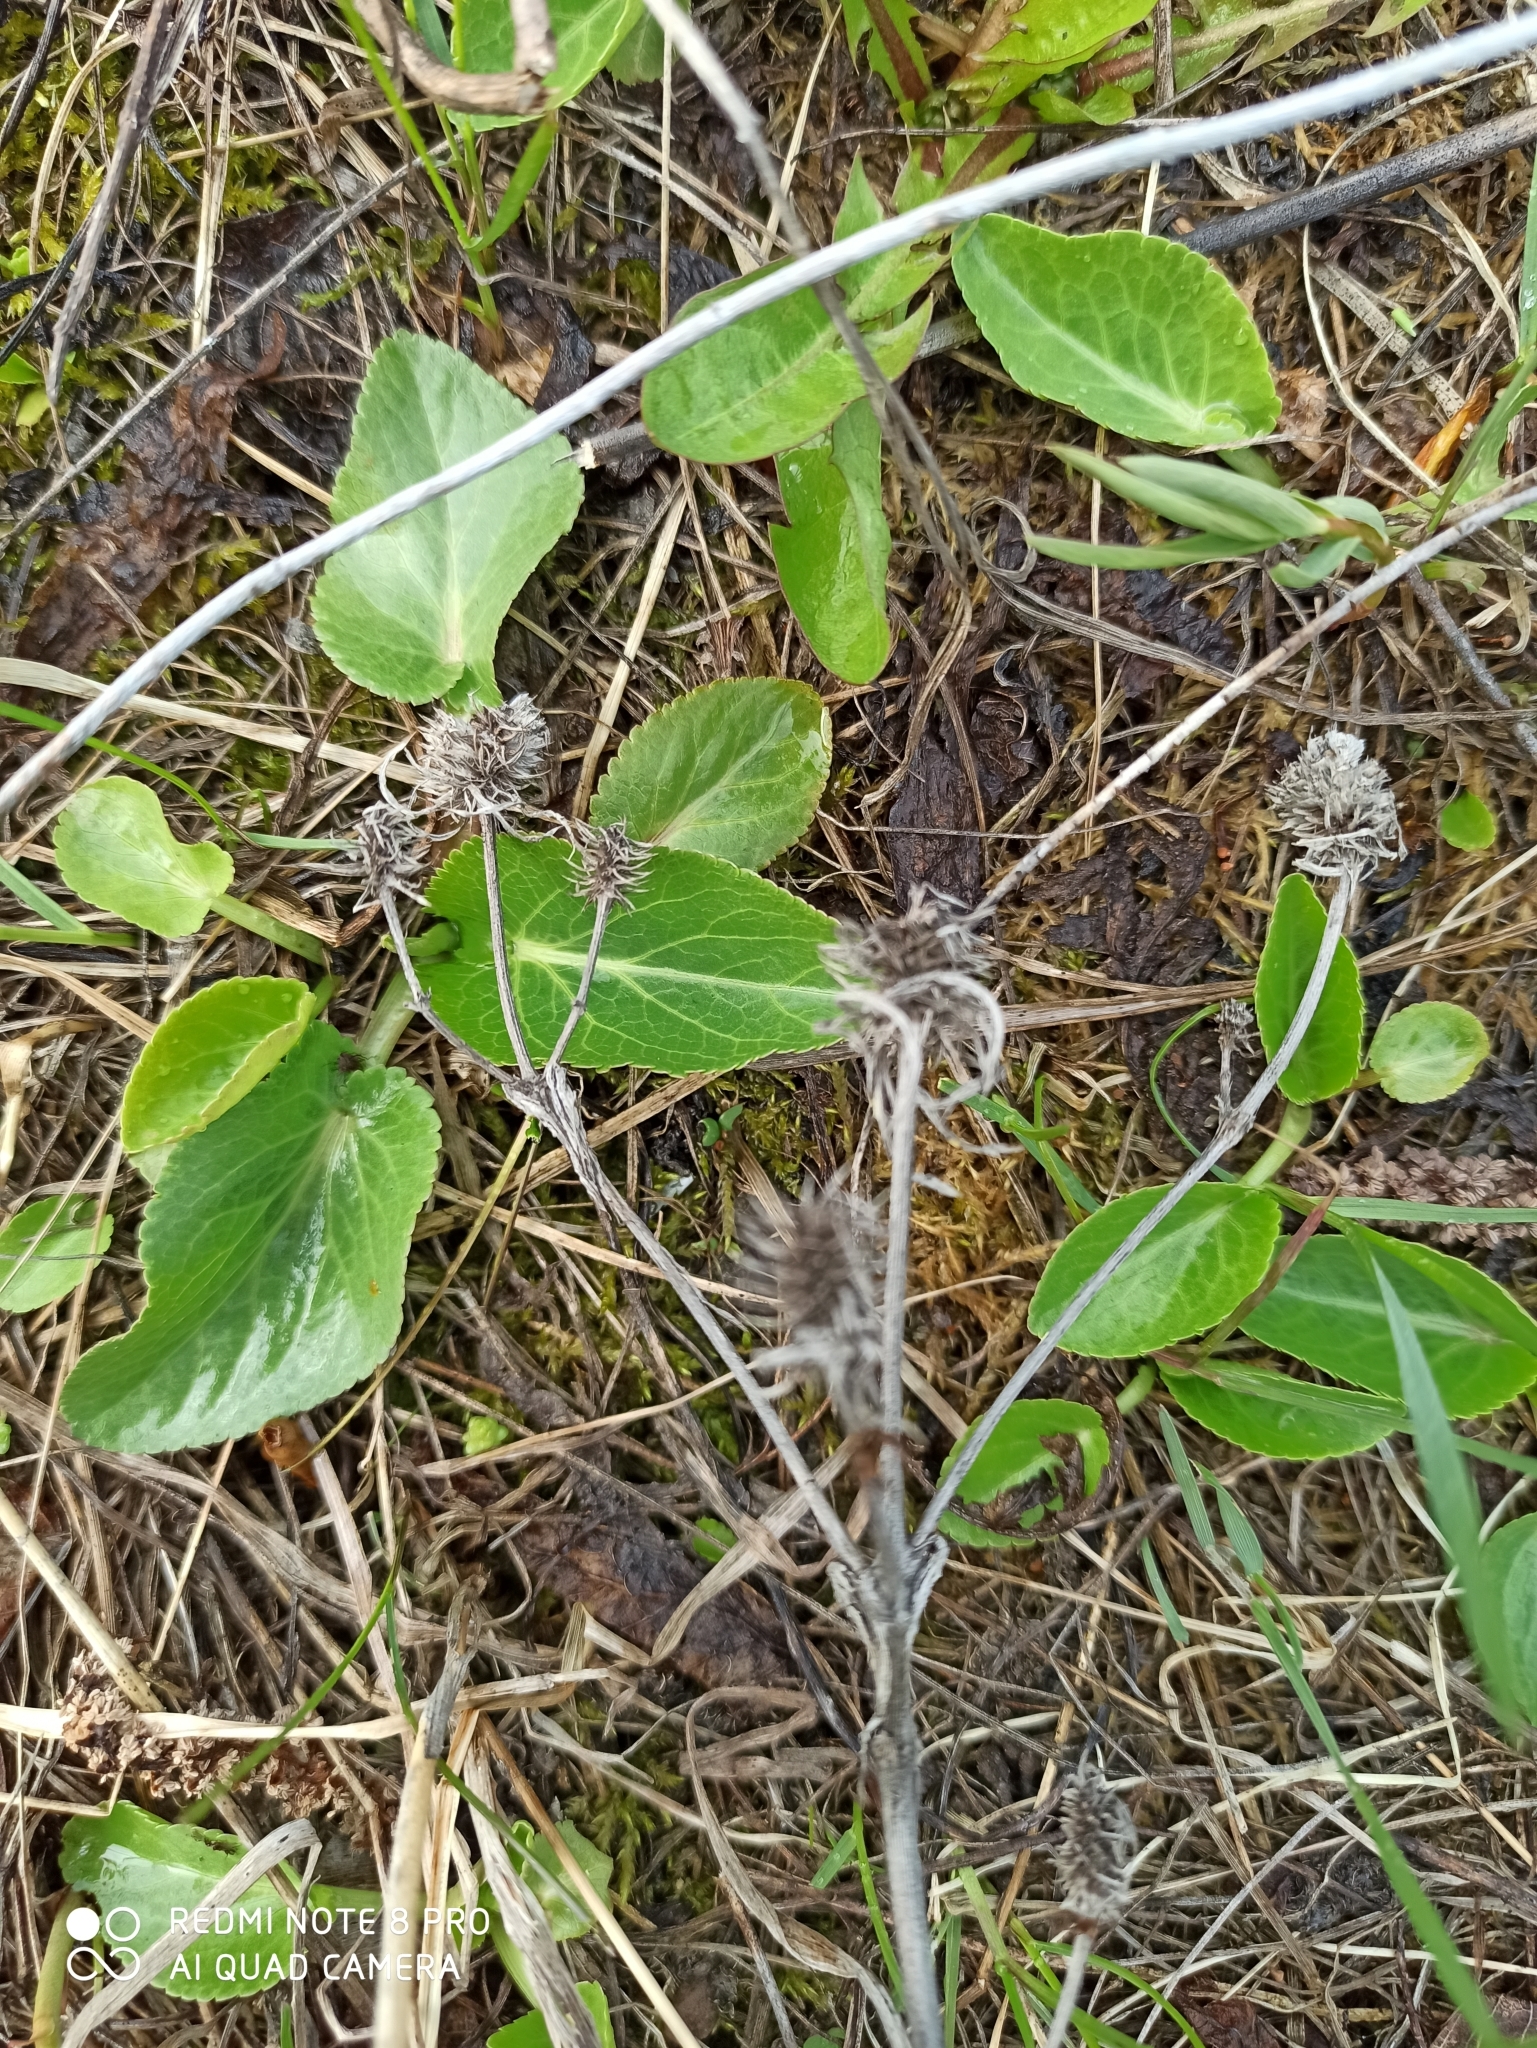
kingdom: Plantae
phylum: Tracheophyta
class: Magnoliopsida
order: Apiales
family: Apiaceae
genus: Eryngium
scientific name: Eryngium planum
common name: Blue eryngo
